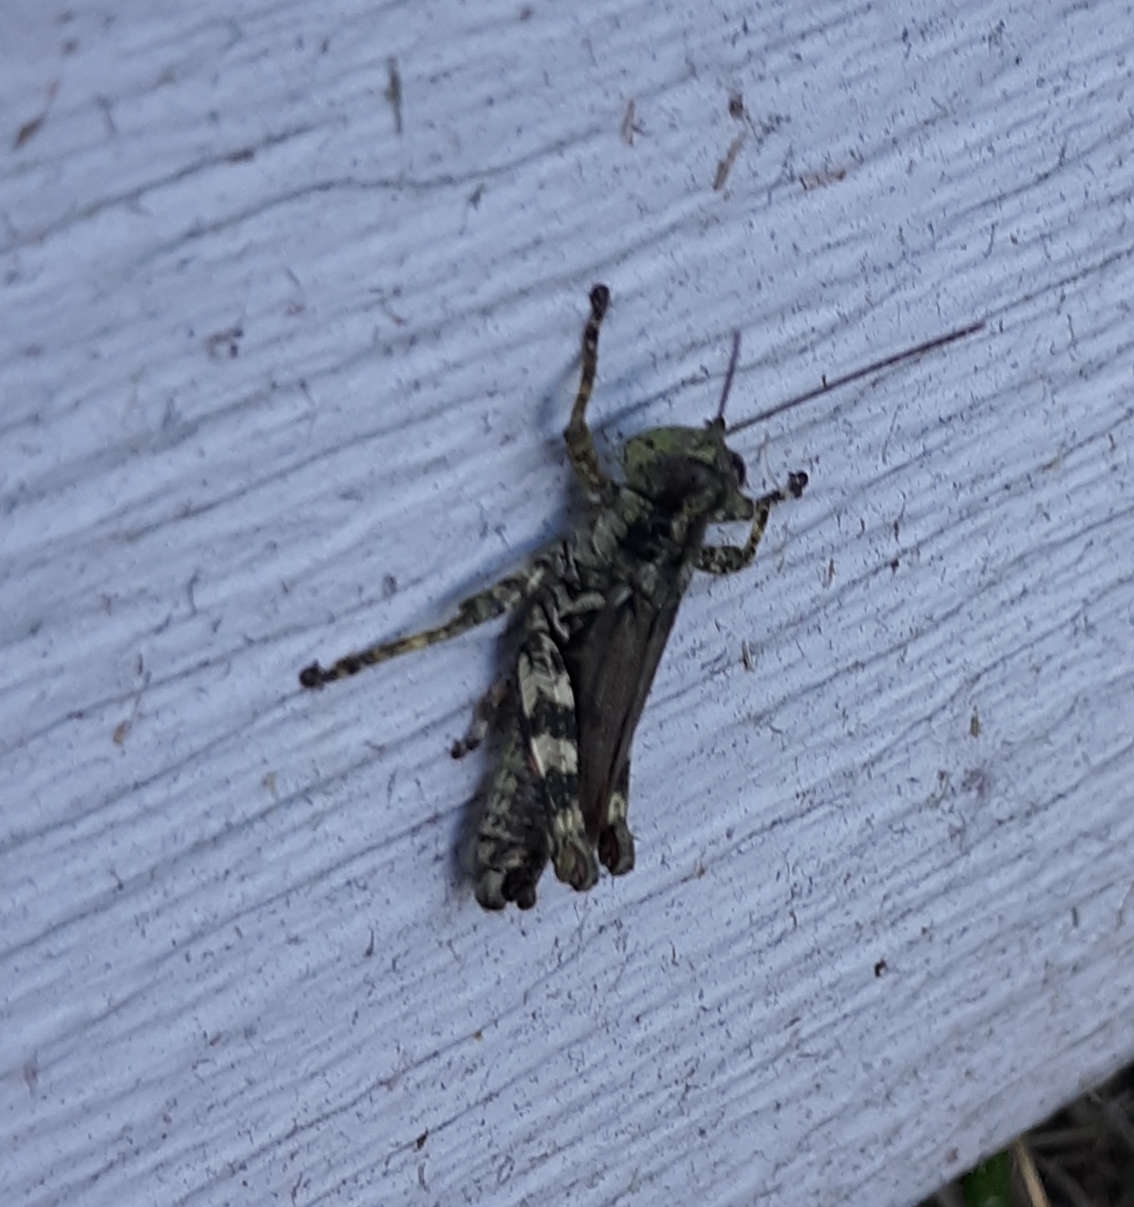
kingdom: Animalia
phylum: Arthropoda
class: Insecta
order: Orthoptera
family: Acrididae
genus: Melanoplus
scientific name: Melanoplus punctulatus
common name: Pine-tree spur-throat grasshopper
